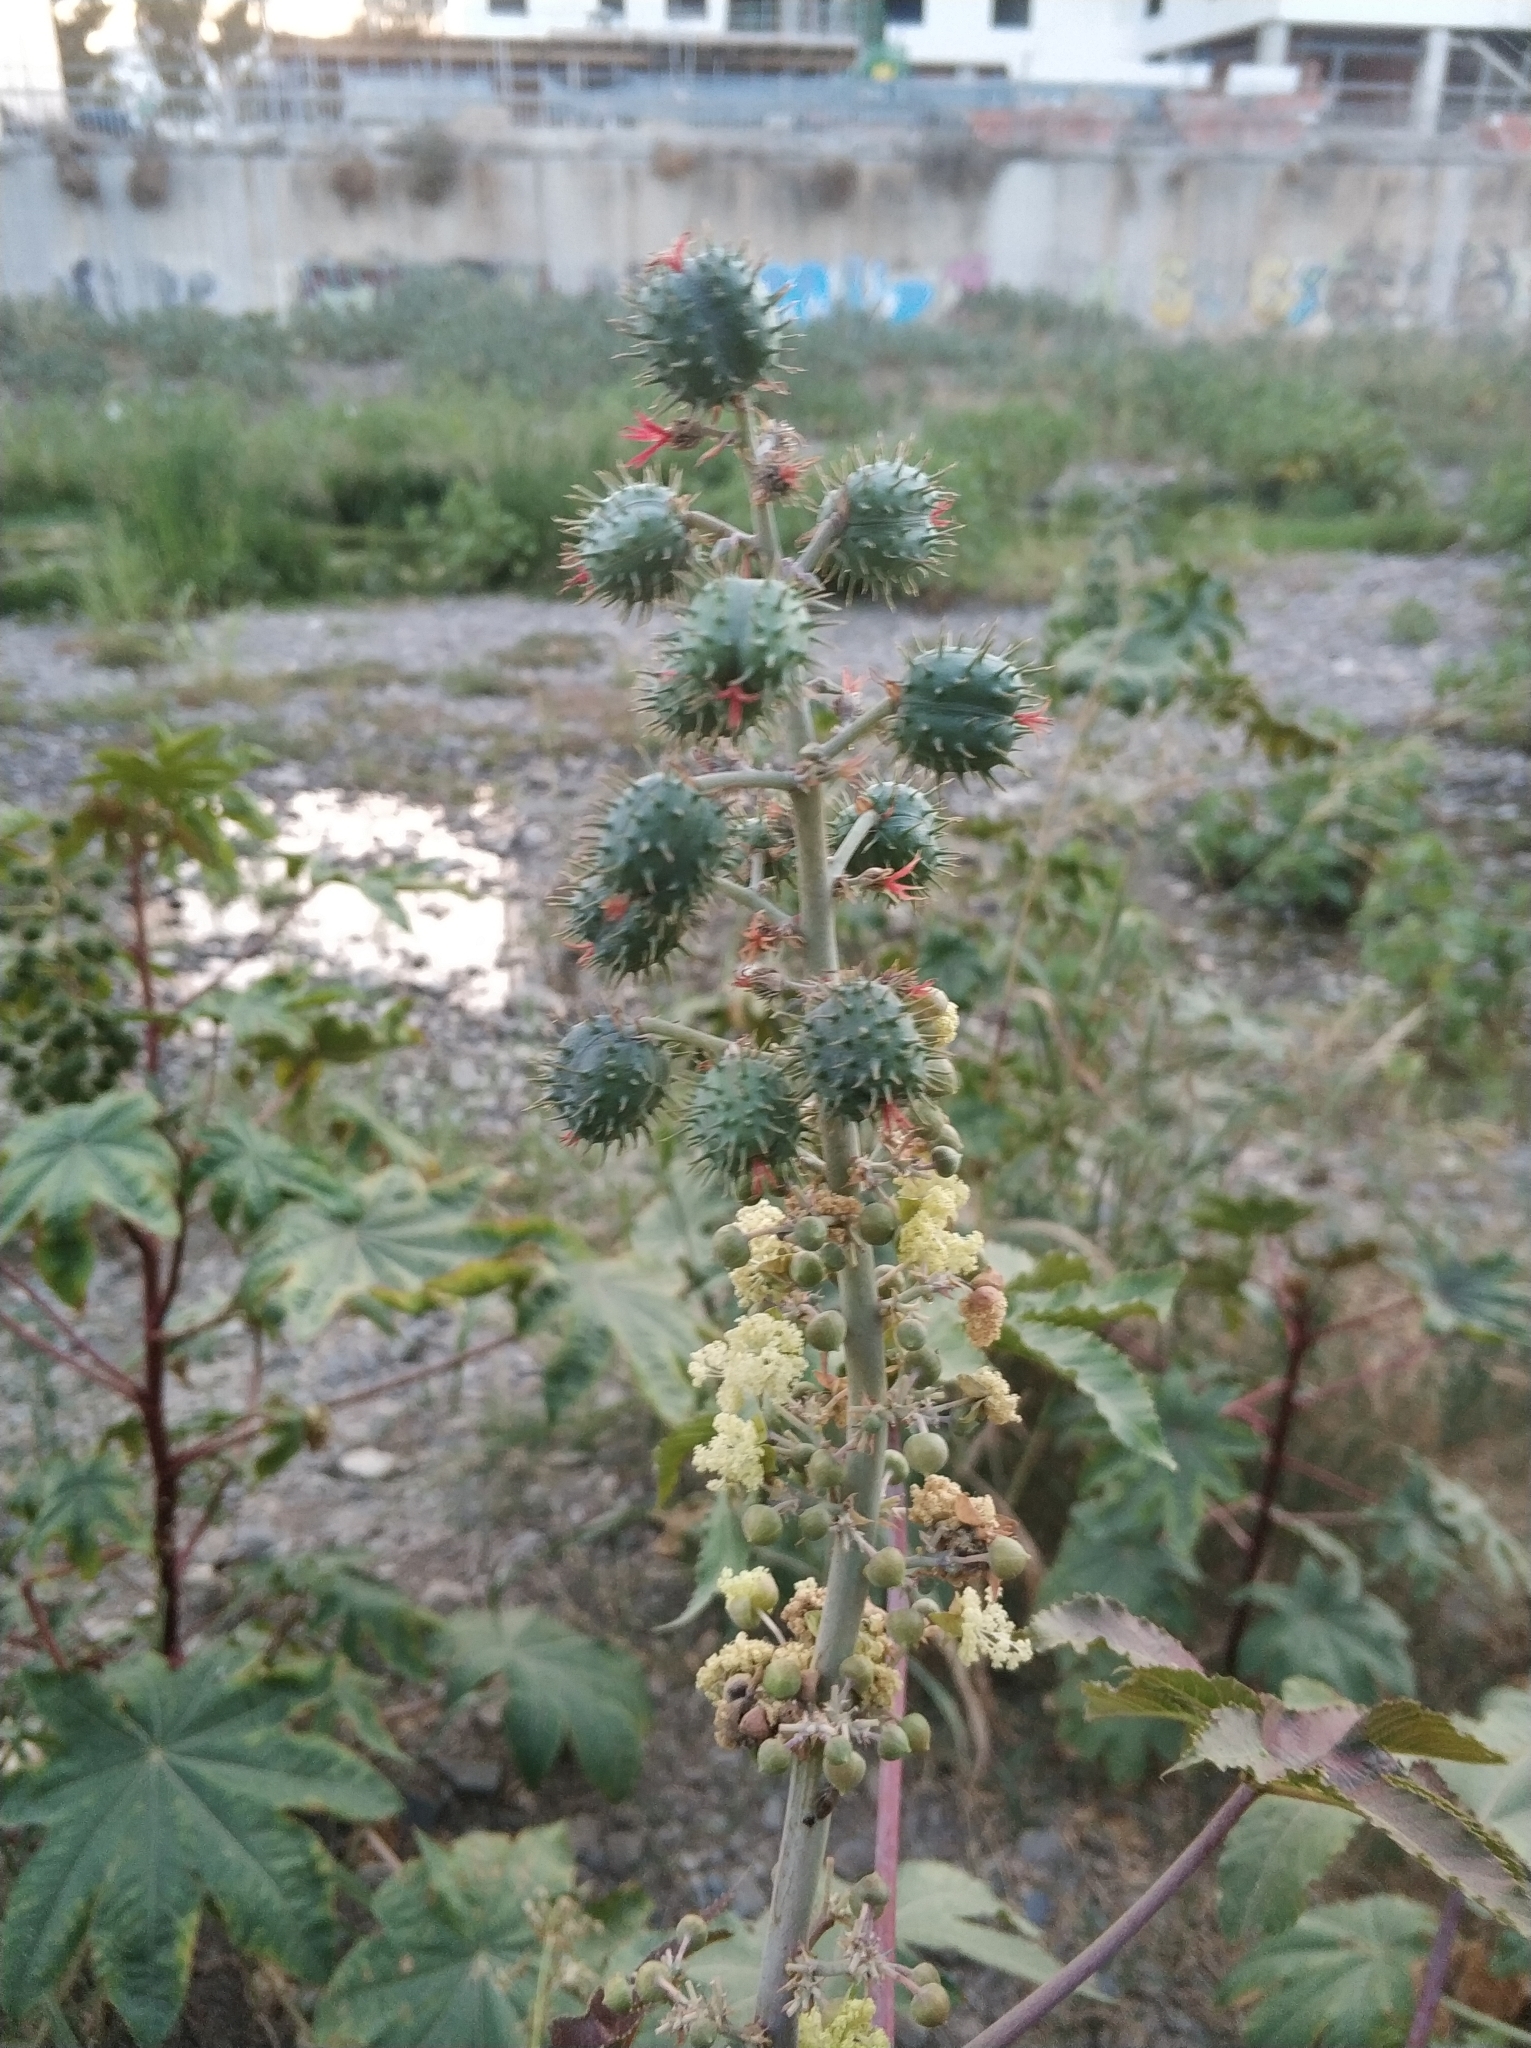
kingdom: Plantae
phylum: Tracheophyta
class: Magnoliopsida
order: Malpighiales
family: Euphorbiaceae
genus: Ricinus
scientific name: Ricinus communis
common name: Castor-oil-plant
